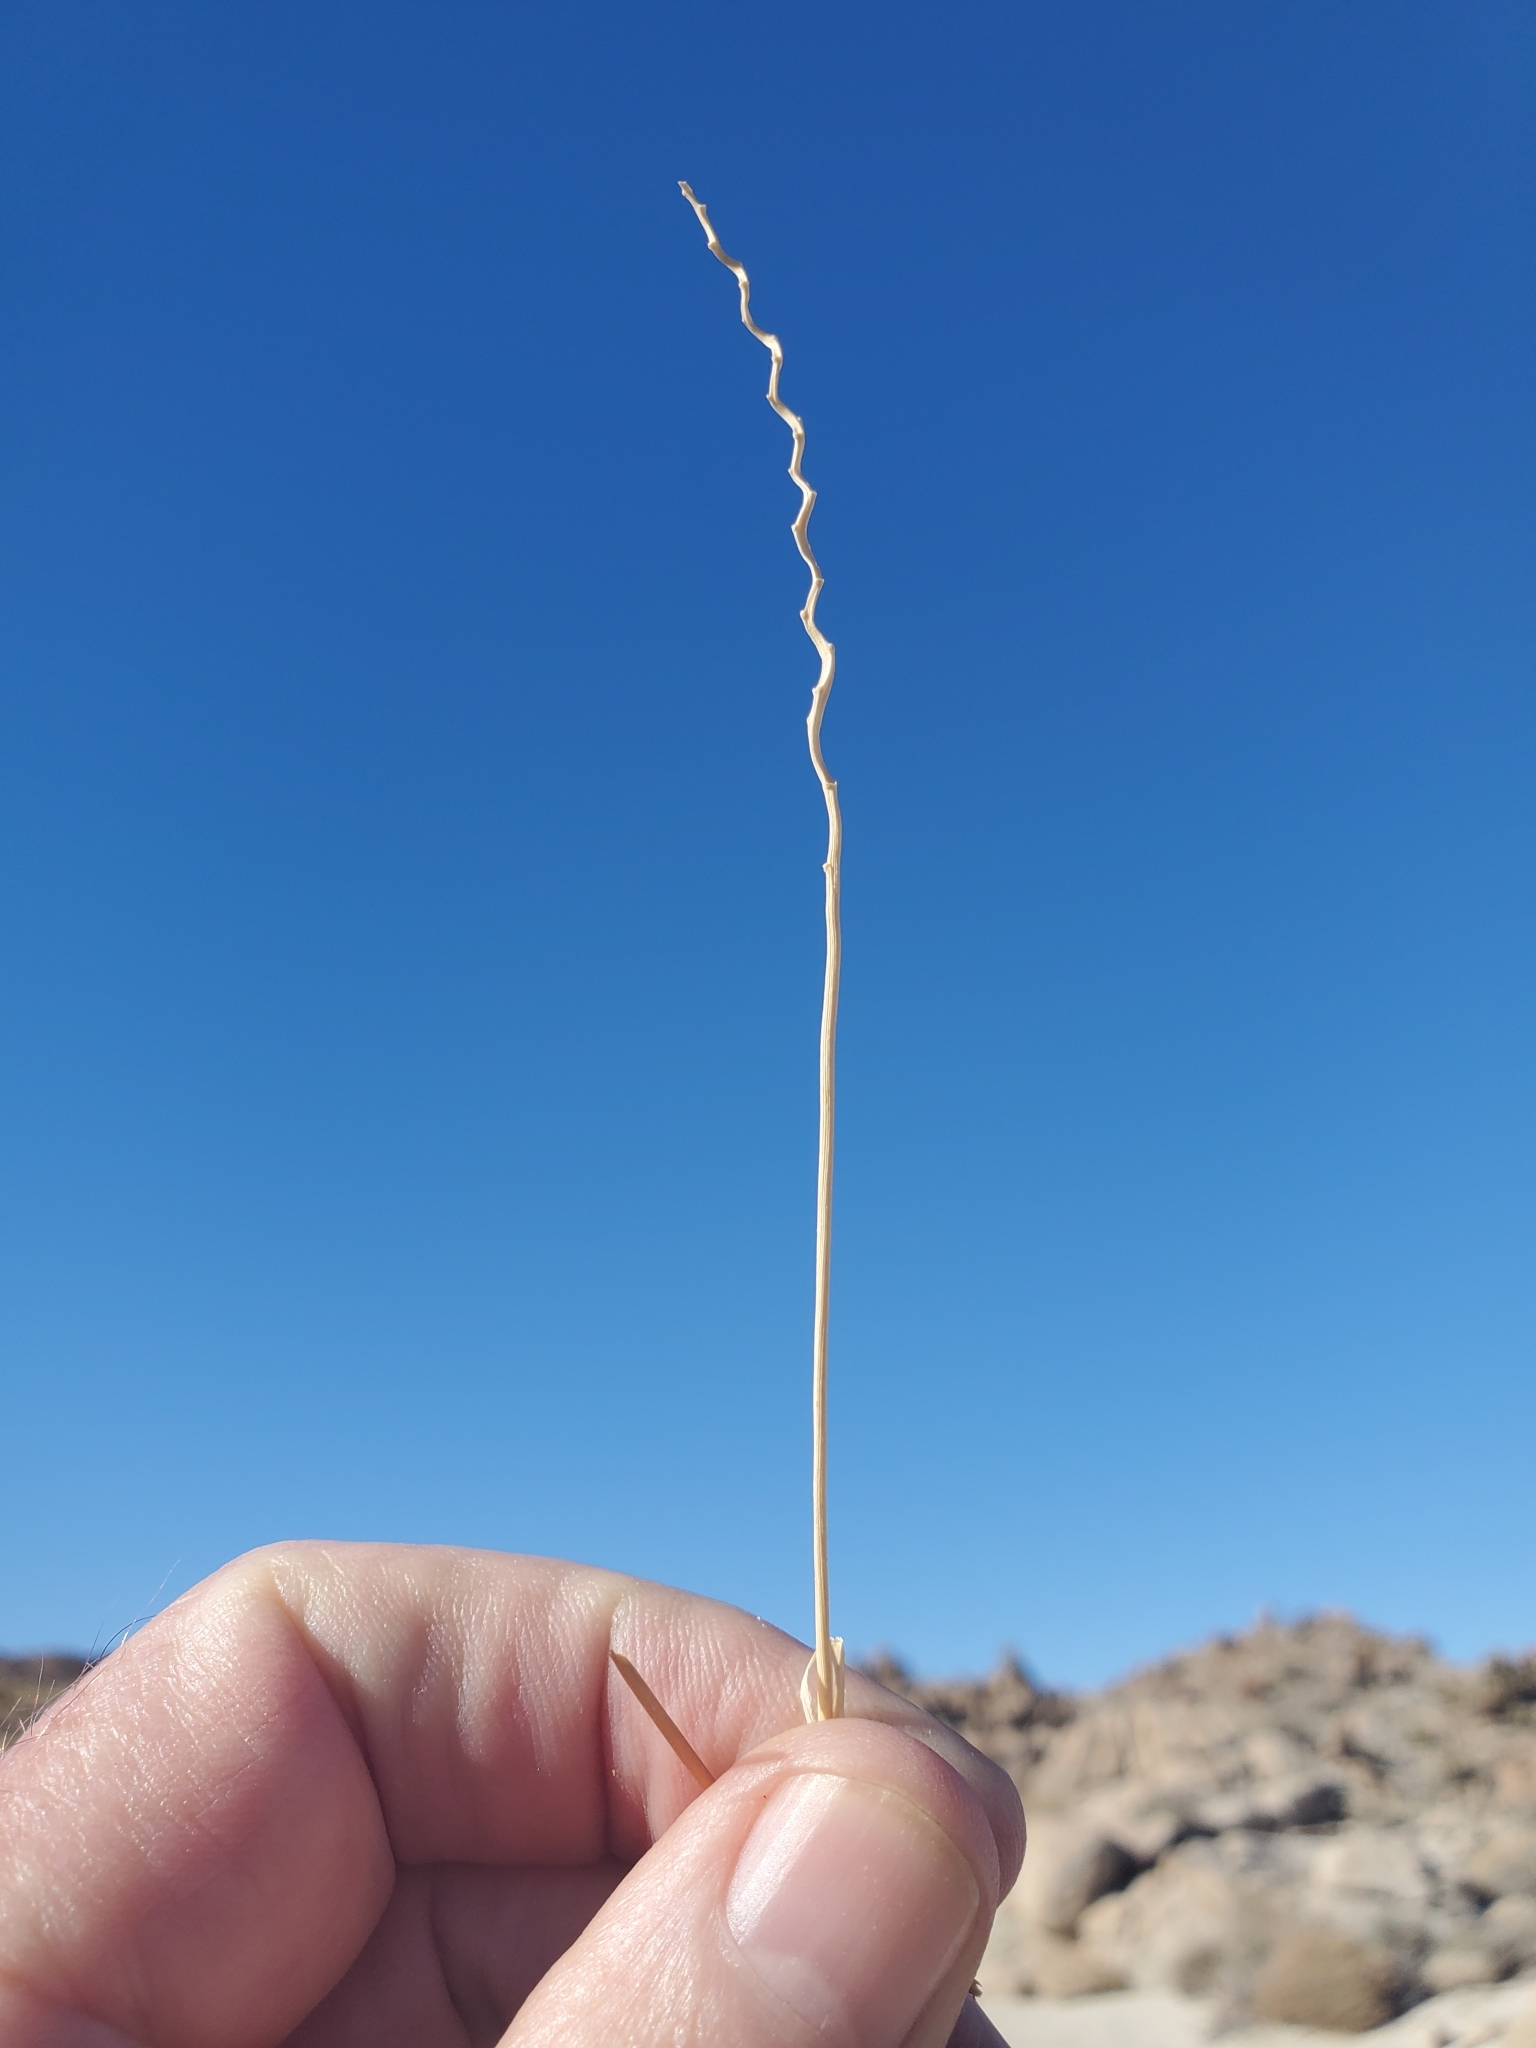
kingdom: Plantae
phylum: Tracheophyta
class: Liliopsida
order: Poales
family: Poaceae
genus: Hilaria
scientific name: Hilaria rigida
